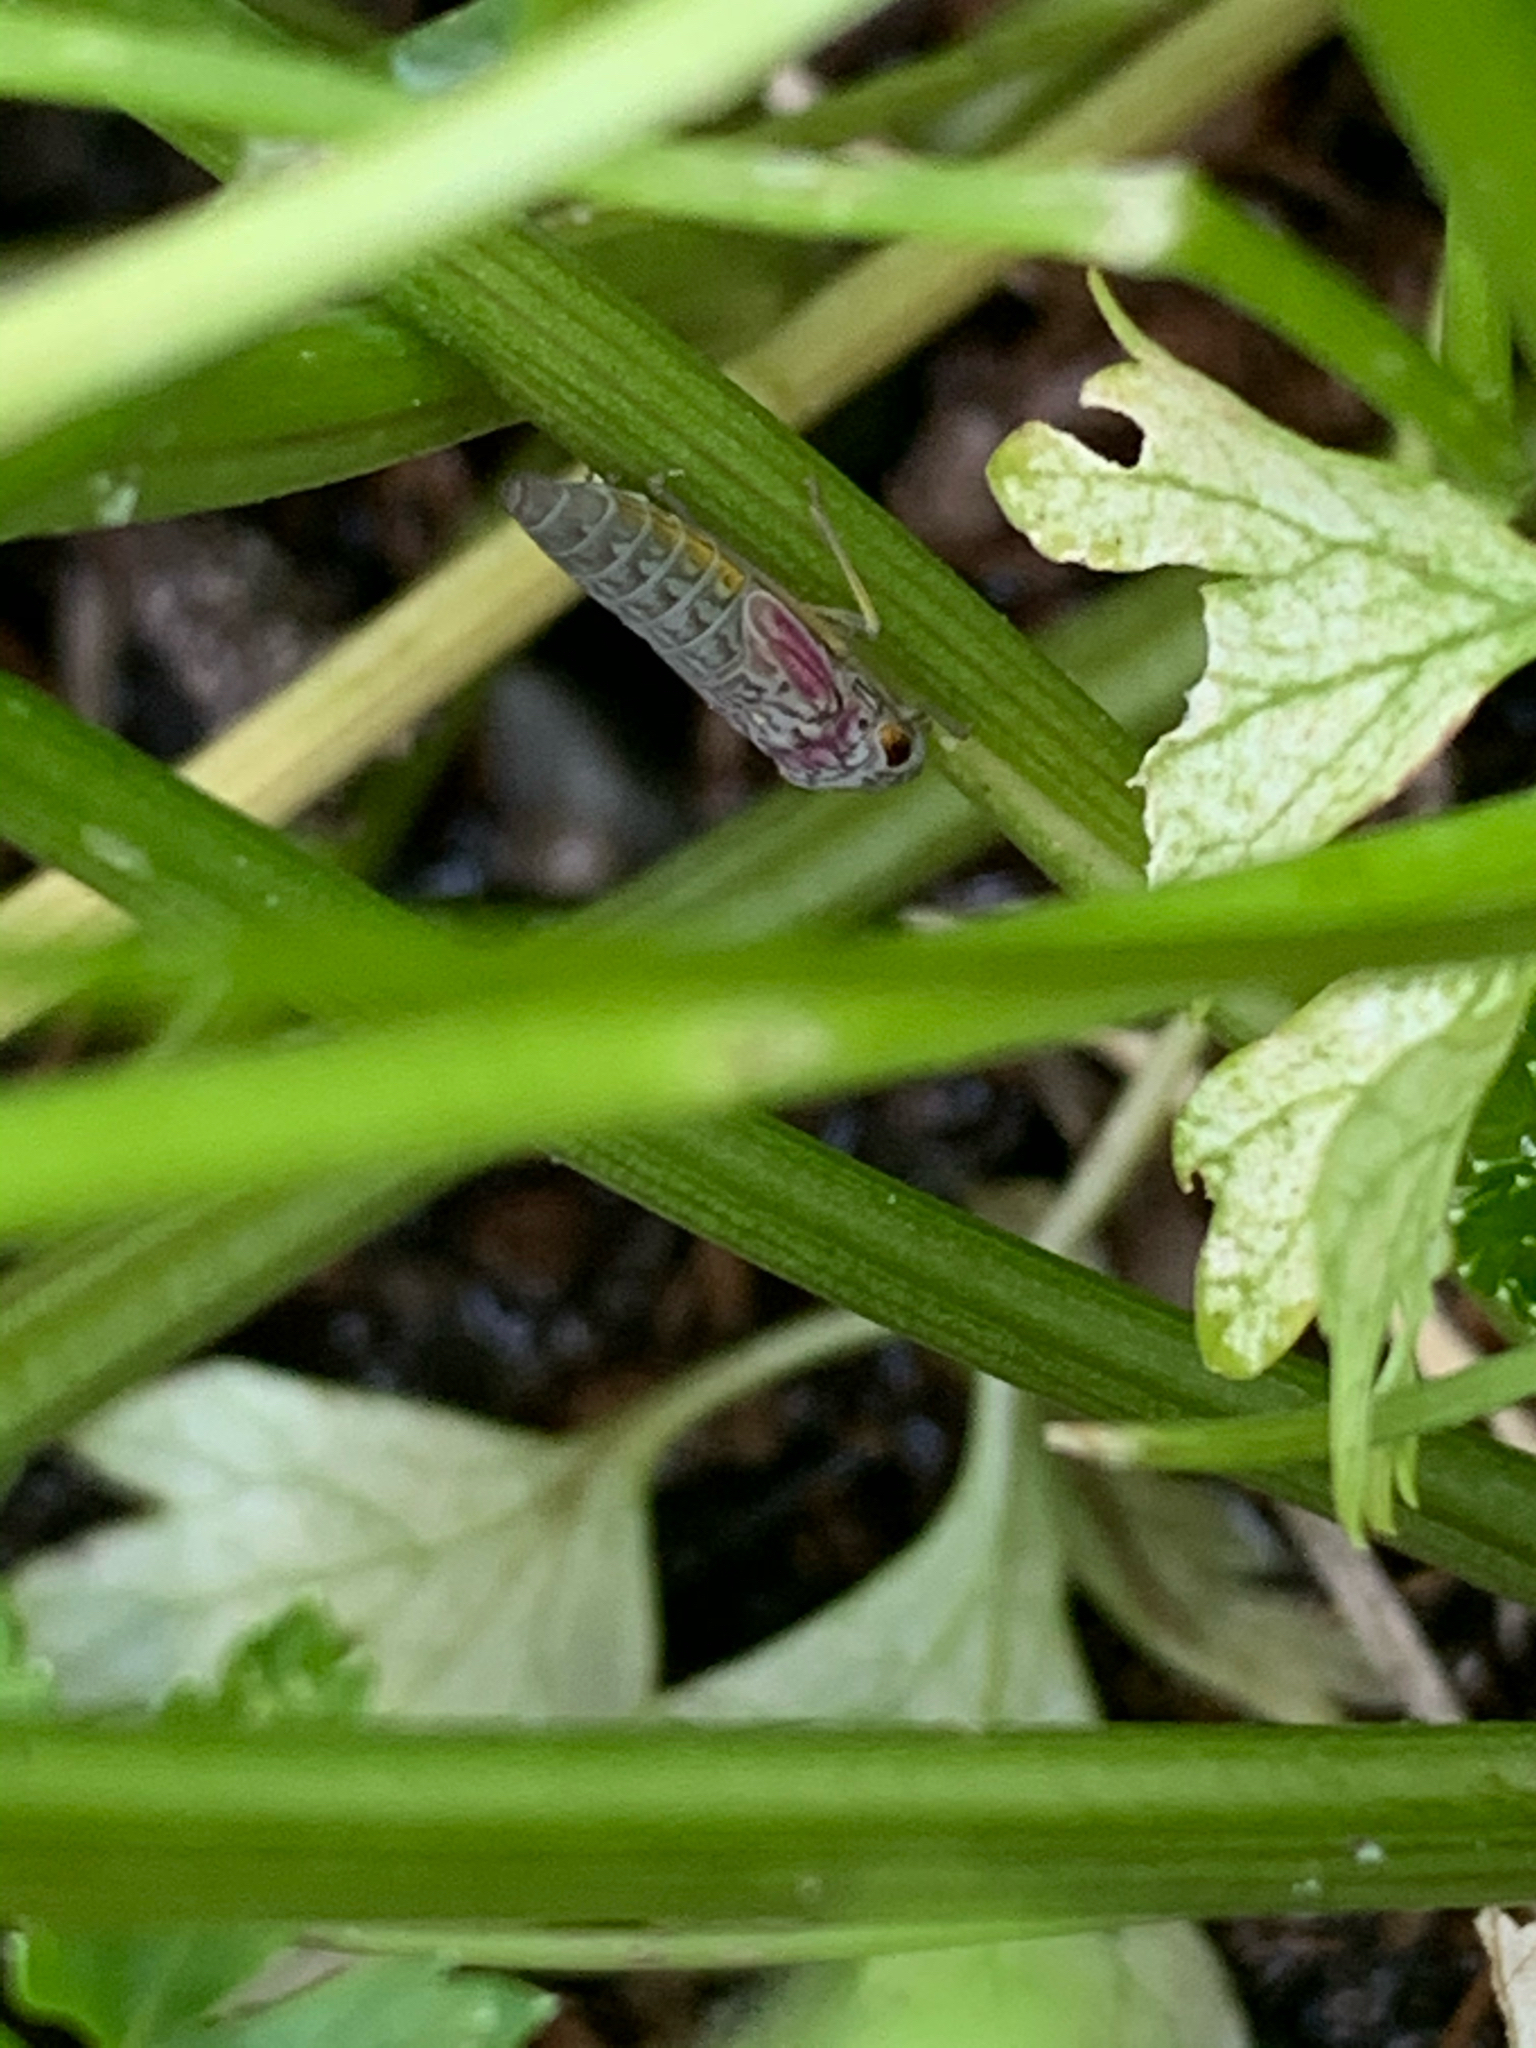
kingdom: Animalia
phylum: Arthropoda
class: Insecta
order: Hemiptera
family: Cicadellidae
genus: Oncometopia
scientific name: Oncometopia orbona
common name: Broad-headed sharpshooter
